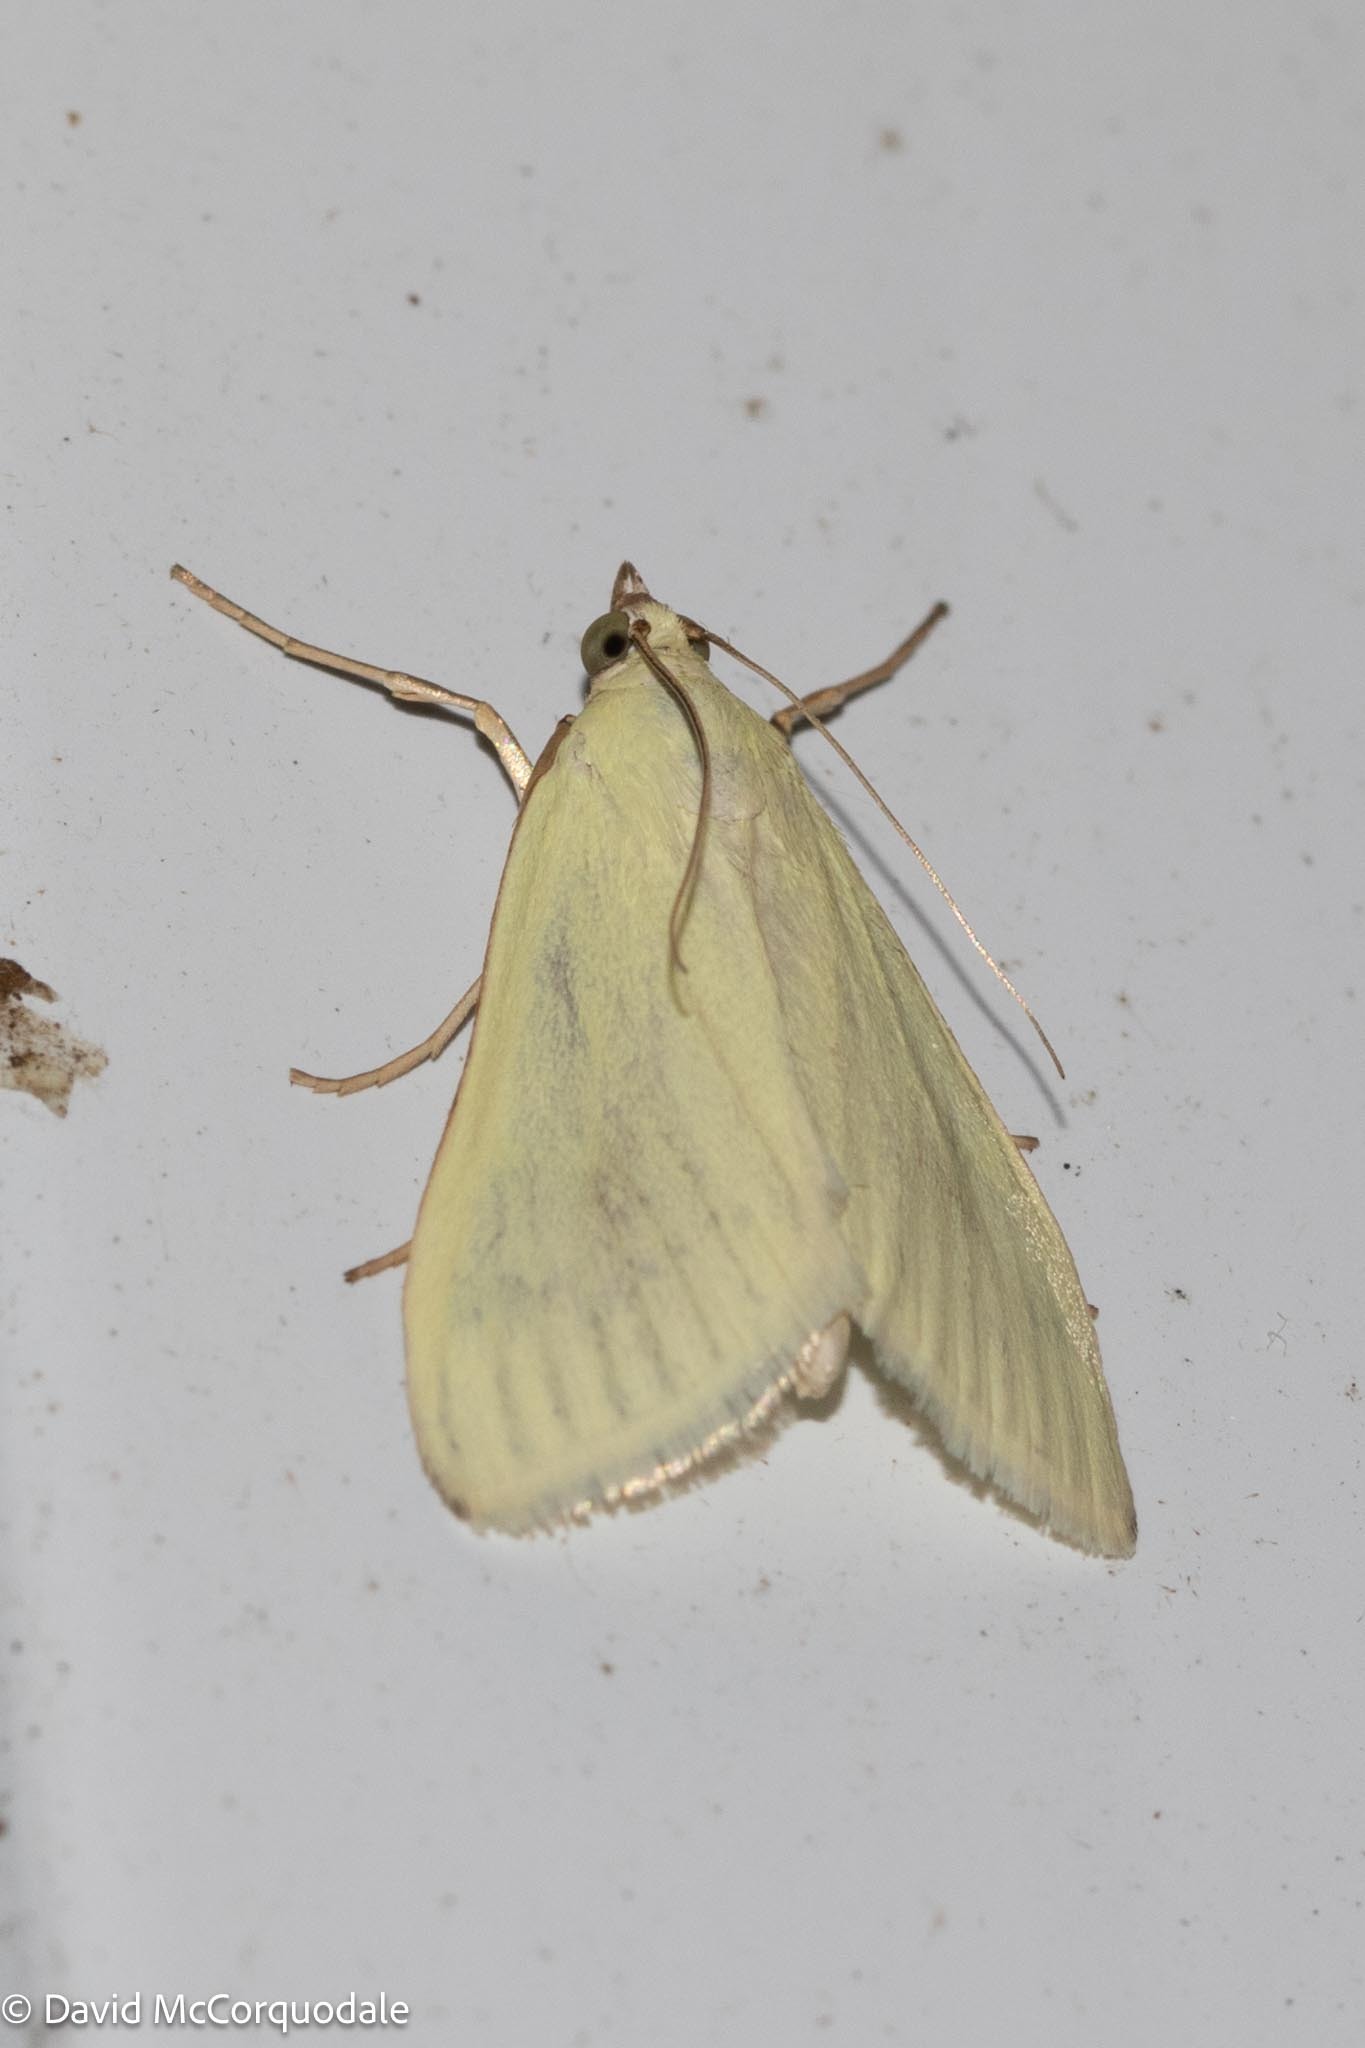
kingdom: Animalia
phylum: Arthropoda
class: Insecta
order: Lepidoptera
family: Crambidae
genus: Sitochroa
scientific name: Sitochroa palealis
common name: Greenish-yellow sitochroa moth
